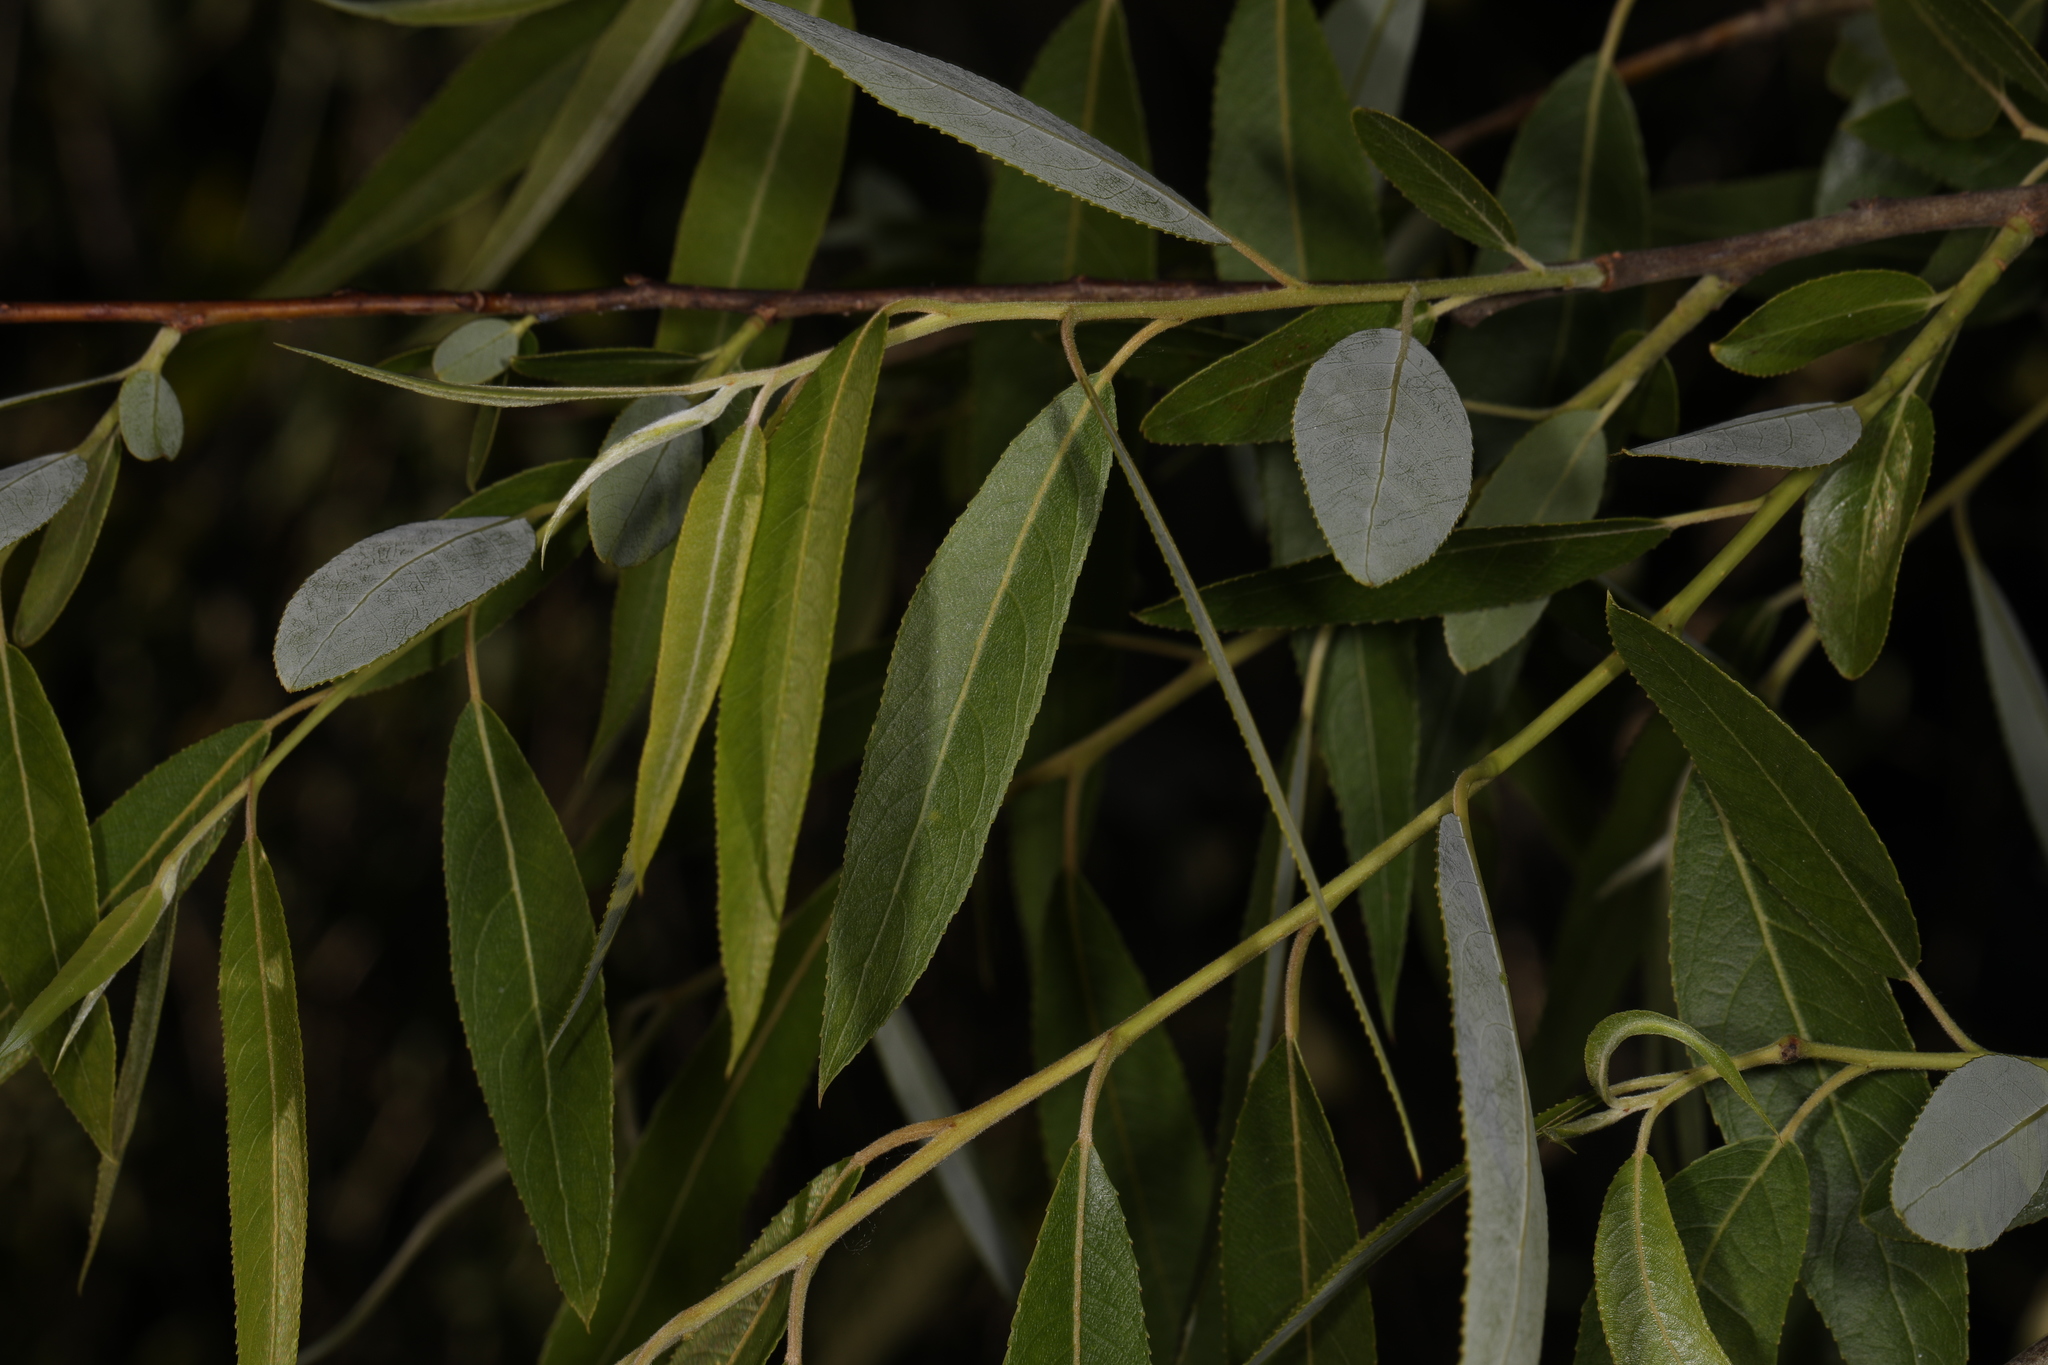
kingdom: Plantae
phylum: Tracheophyta
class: Magnoliopsida
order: Malpighiales
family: Salicaceae
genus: Salix
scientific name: Salix caroliniana
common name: Carolina willow
